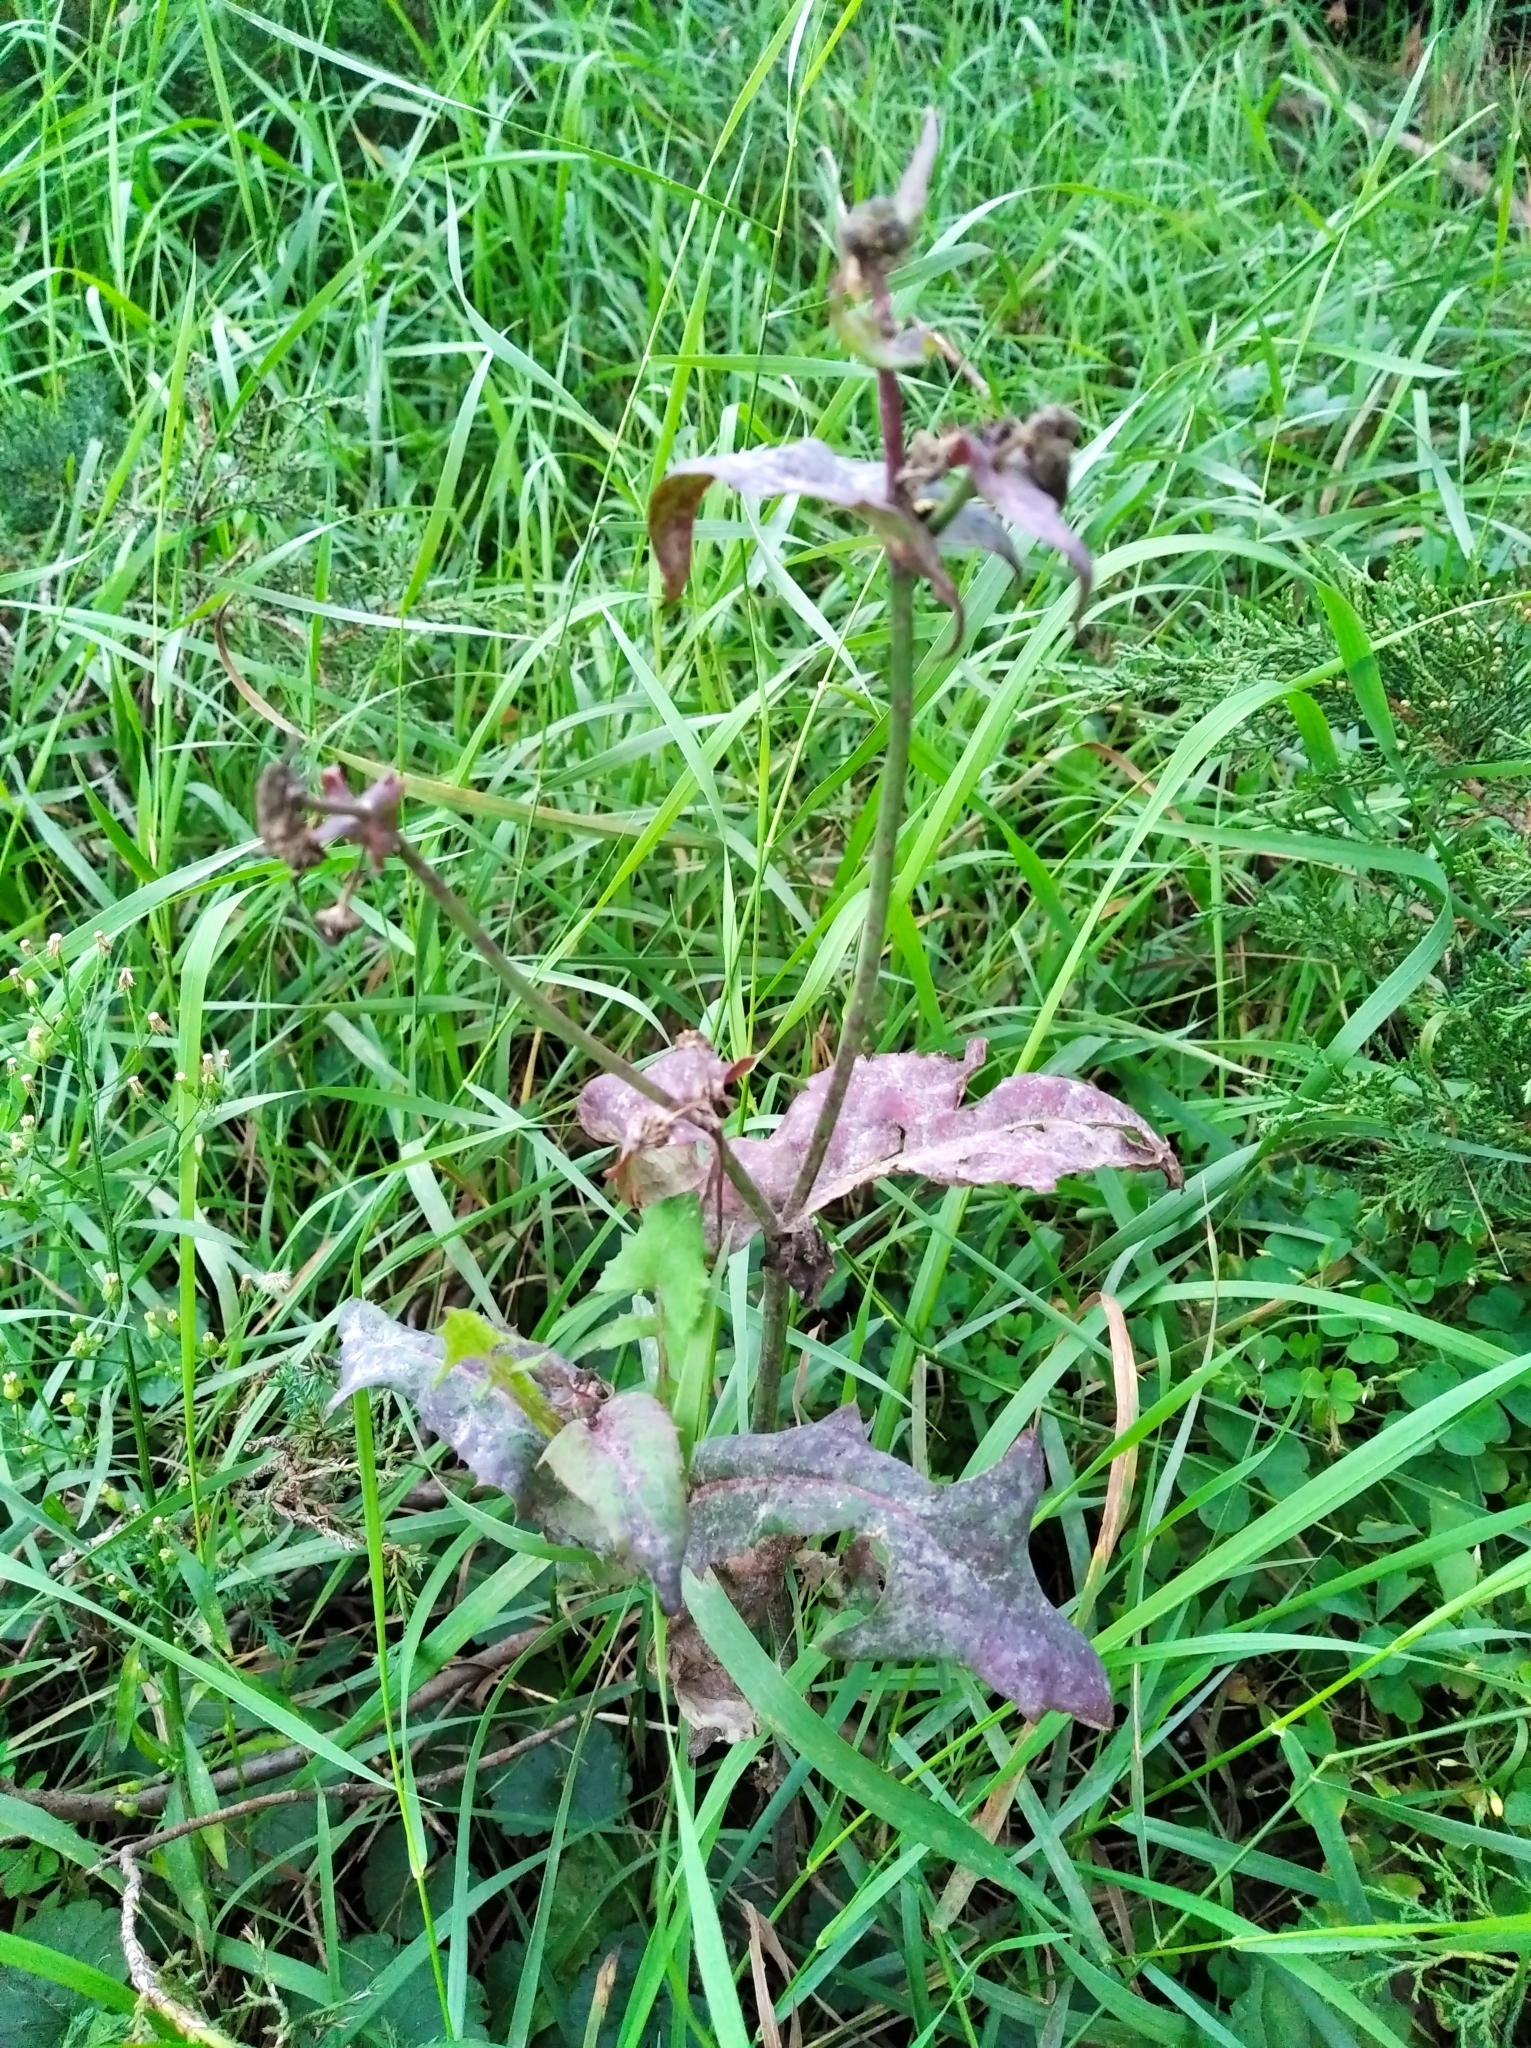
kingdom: Plantae
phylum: Tracheophyta
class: Magnoliopsida
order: Asterales
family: Asteraceae
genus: Sonchus
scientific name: Sonchus oleraceus
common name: Common sowthistle
